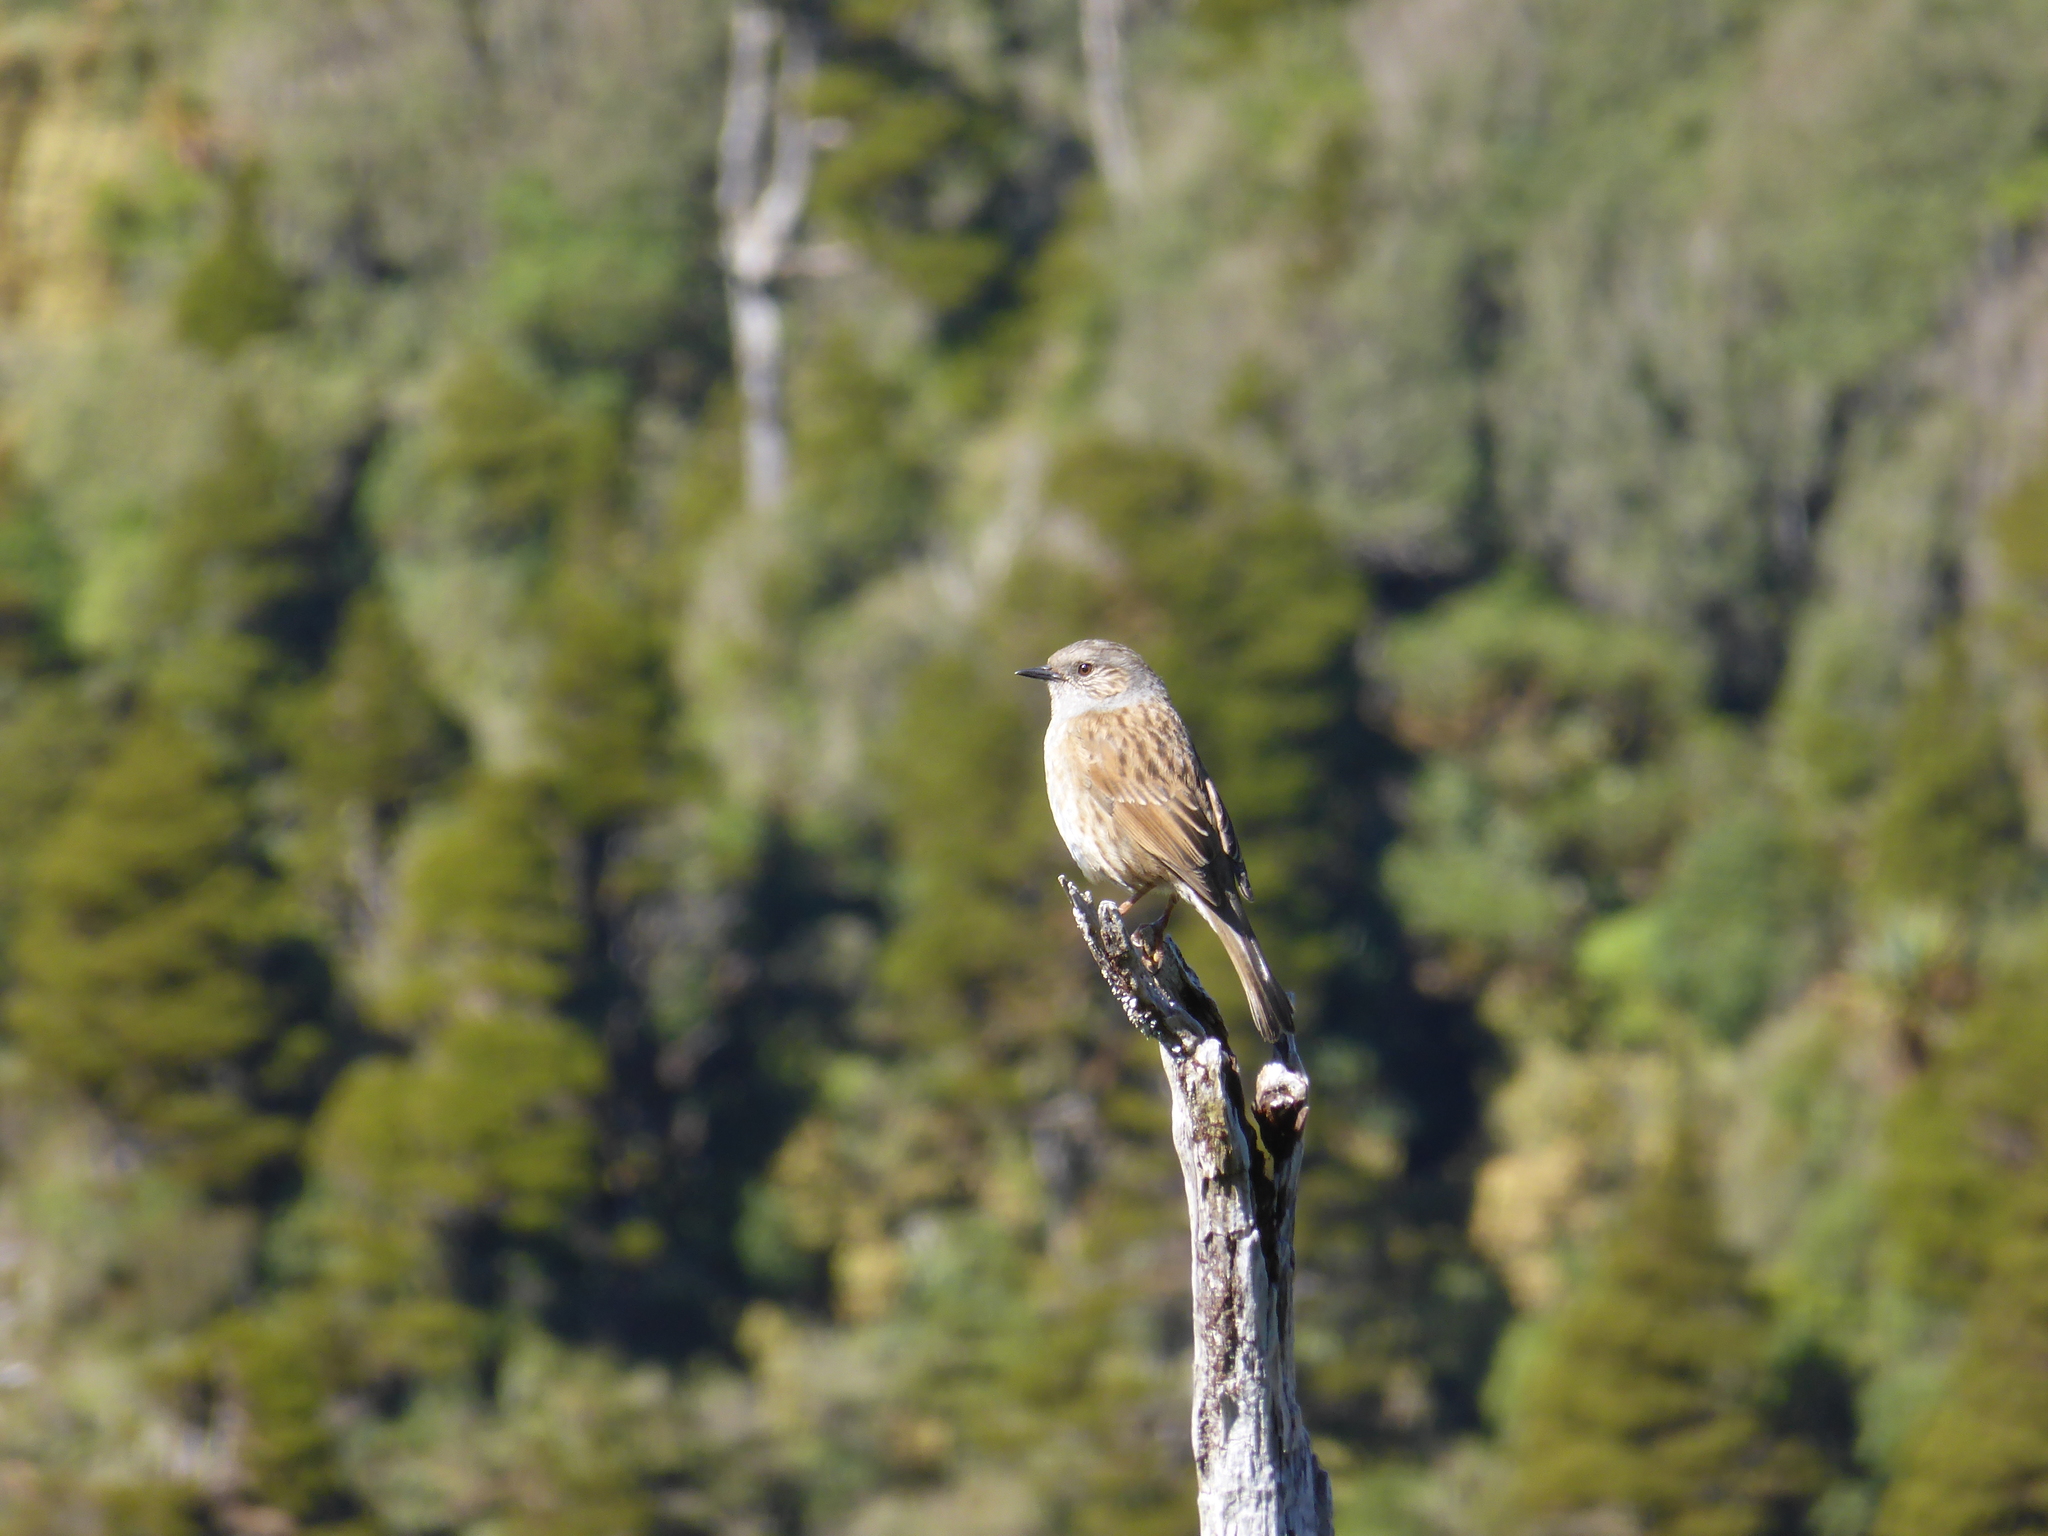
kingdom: Animalia
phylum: Chordata
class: Aves
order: Passeriformes
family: Prunellidae
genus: Prunella
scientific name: Prunella modularis
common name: Dunnock
